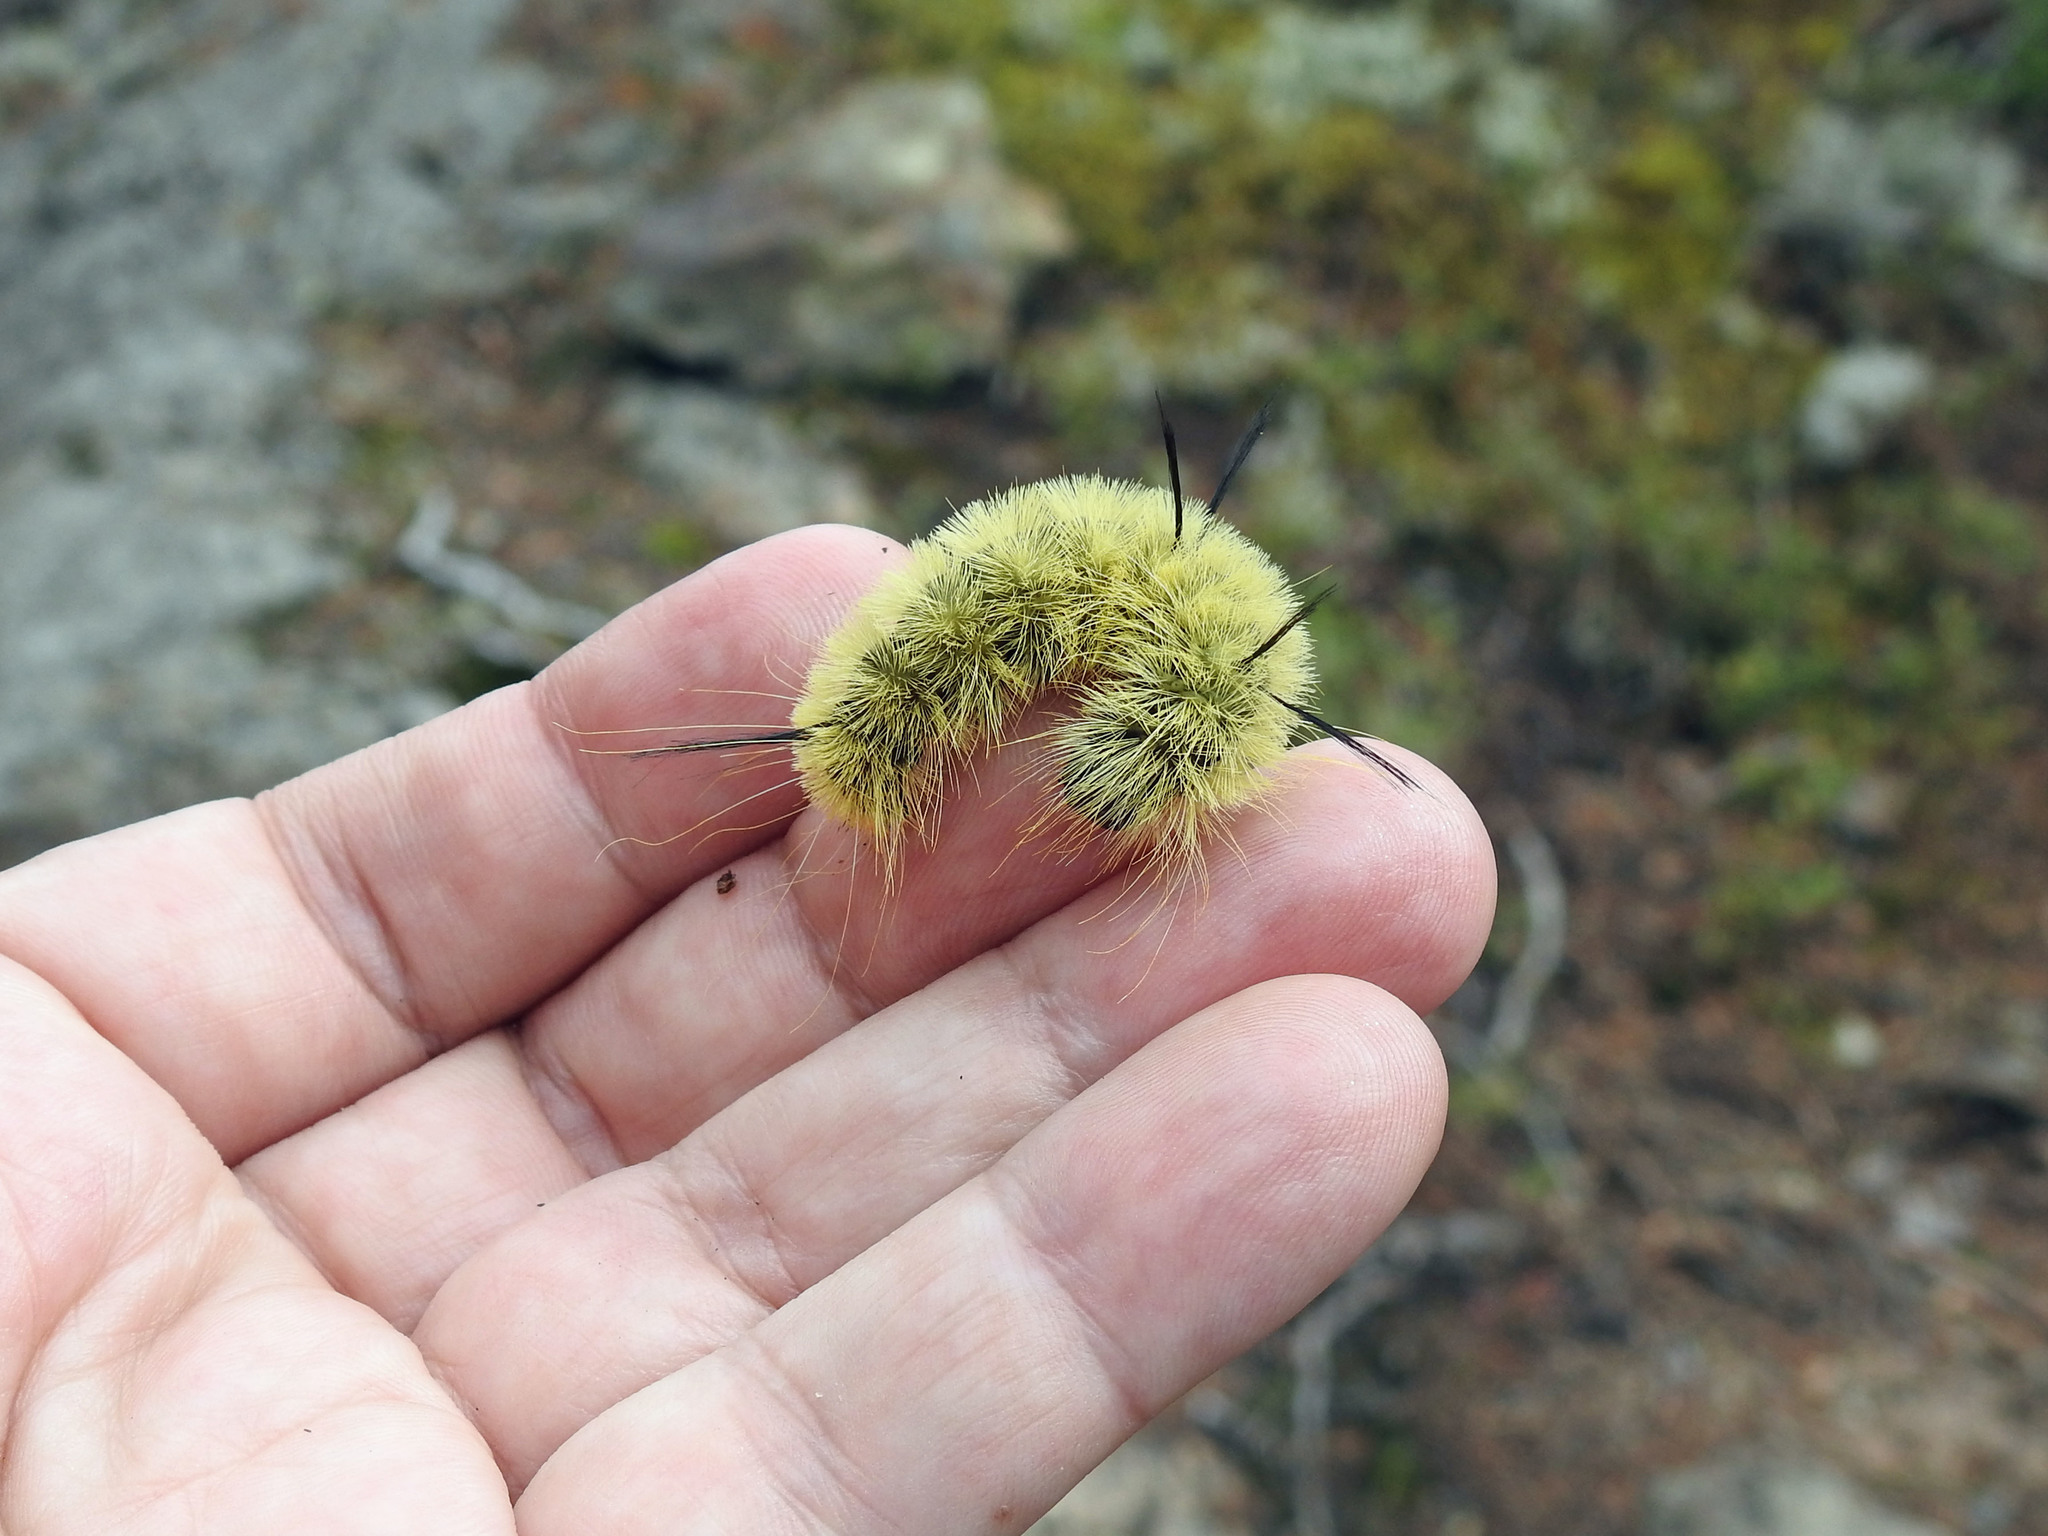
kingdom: Animalia
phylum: Arthropoda
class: Insecta
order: Lepidoptera
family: Noctuidae
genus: Acronicta
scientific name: Acronicta americana
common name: American dagger
